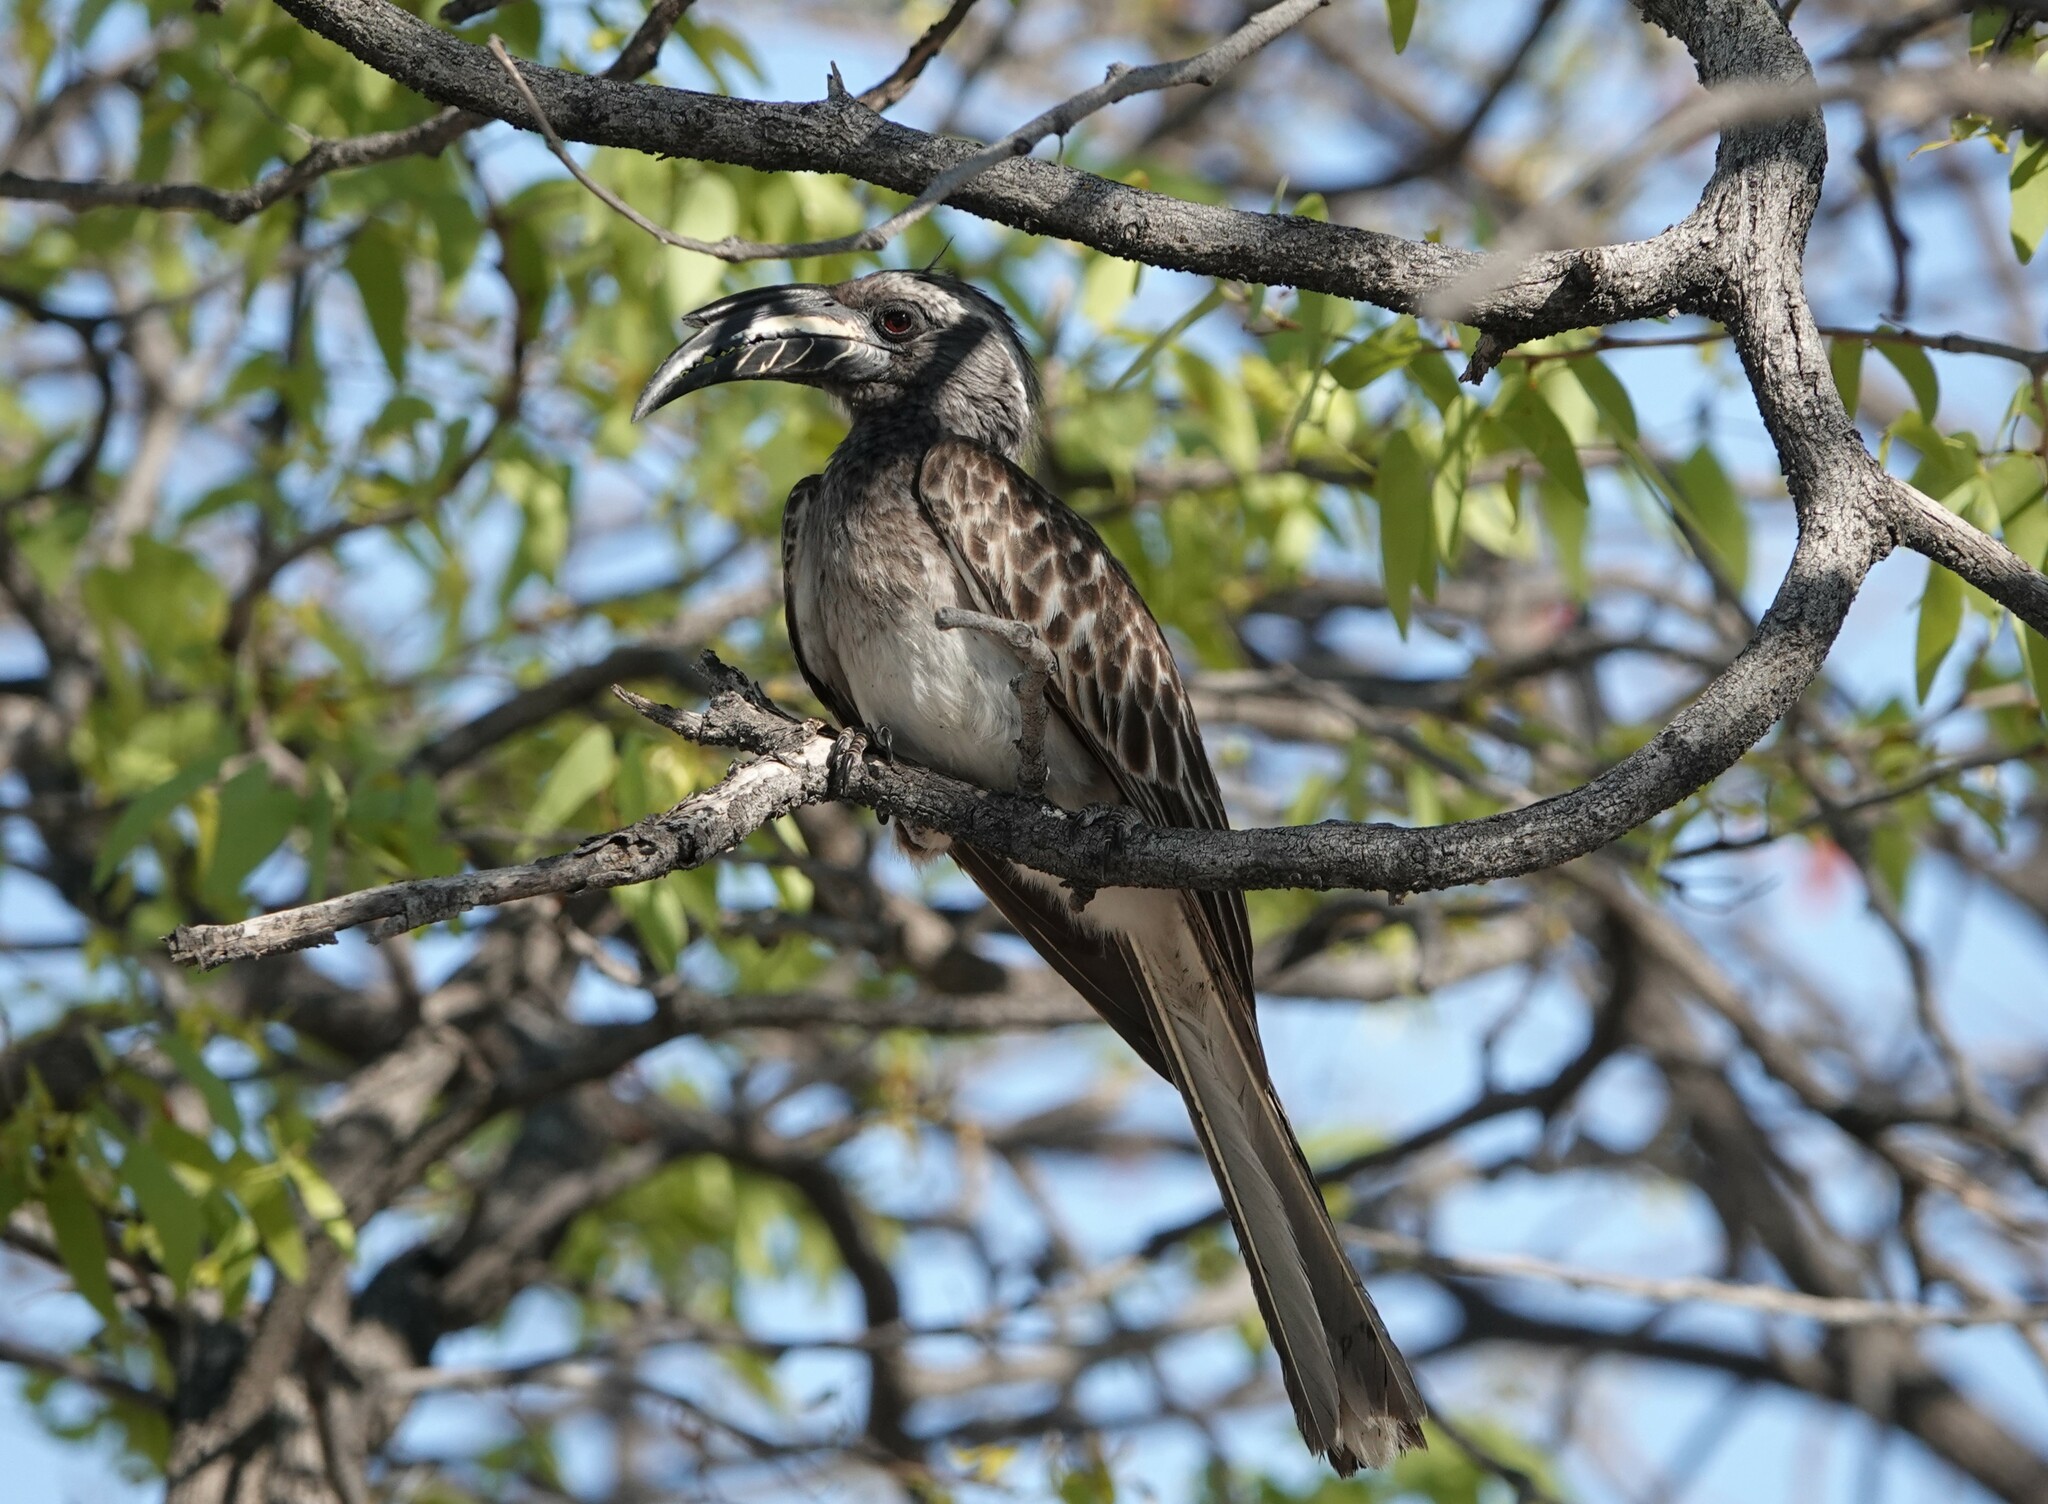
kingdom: Animalia
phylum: Chordata
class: Aves
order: Bucerotiformes
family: Bucerotidae
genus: Lophoceros
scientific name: Lophoceros nasutus
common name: African grey hornbill
